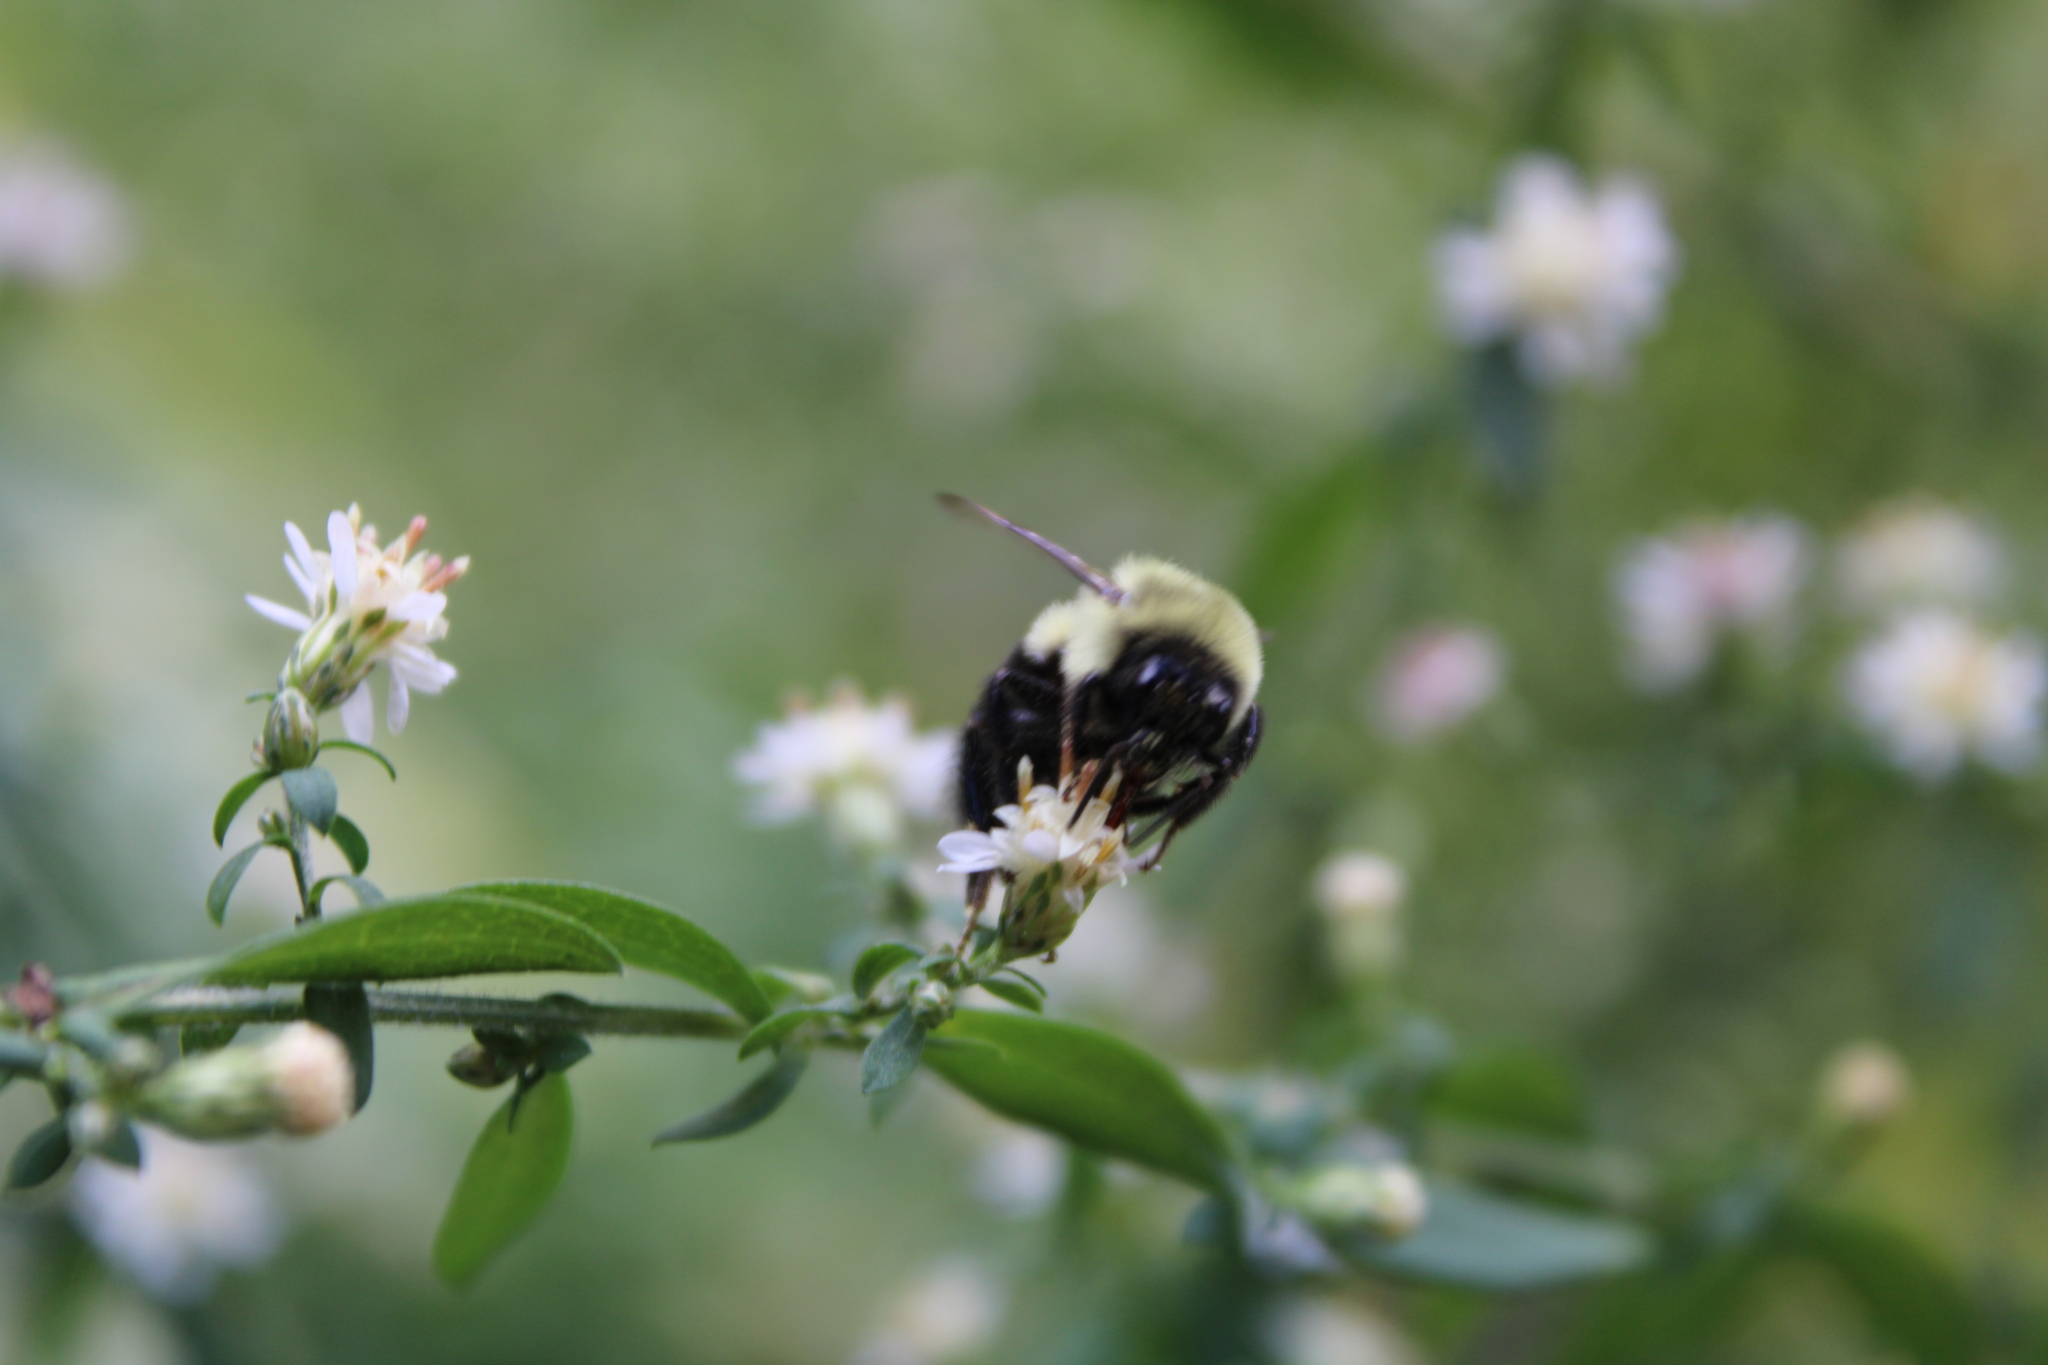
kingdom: Animalia
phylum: Arthropoda
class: Insecta
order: Hymenoptera
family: Apidae
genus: Bombus
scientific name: Bombus impatiens
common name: Common eastern bumble bee
